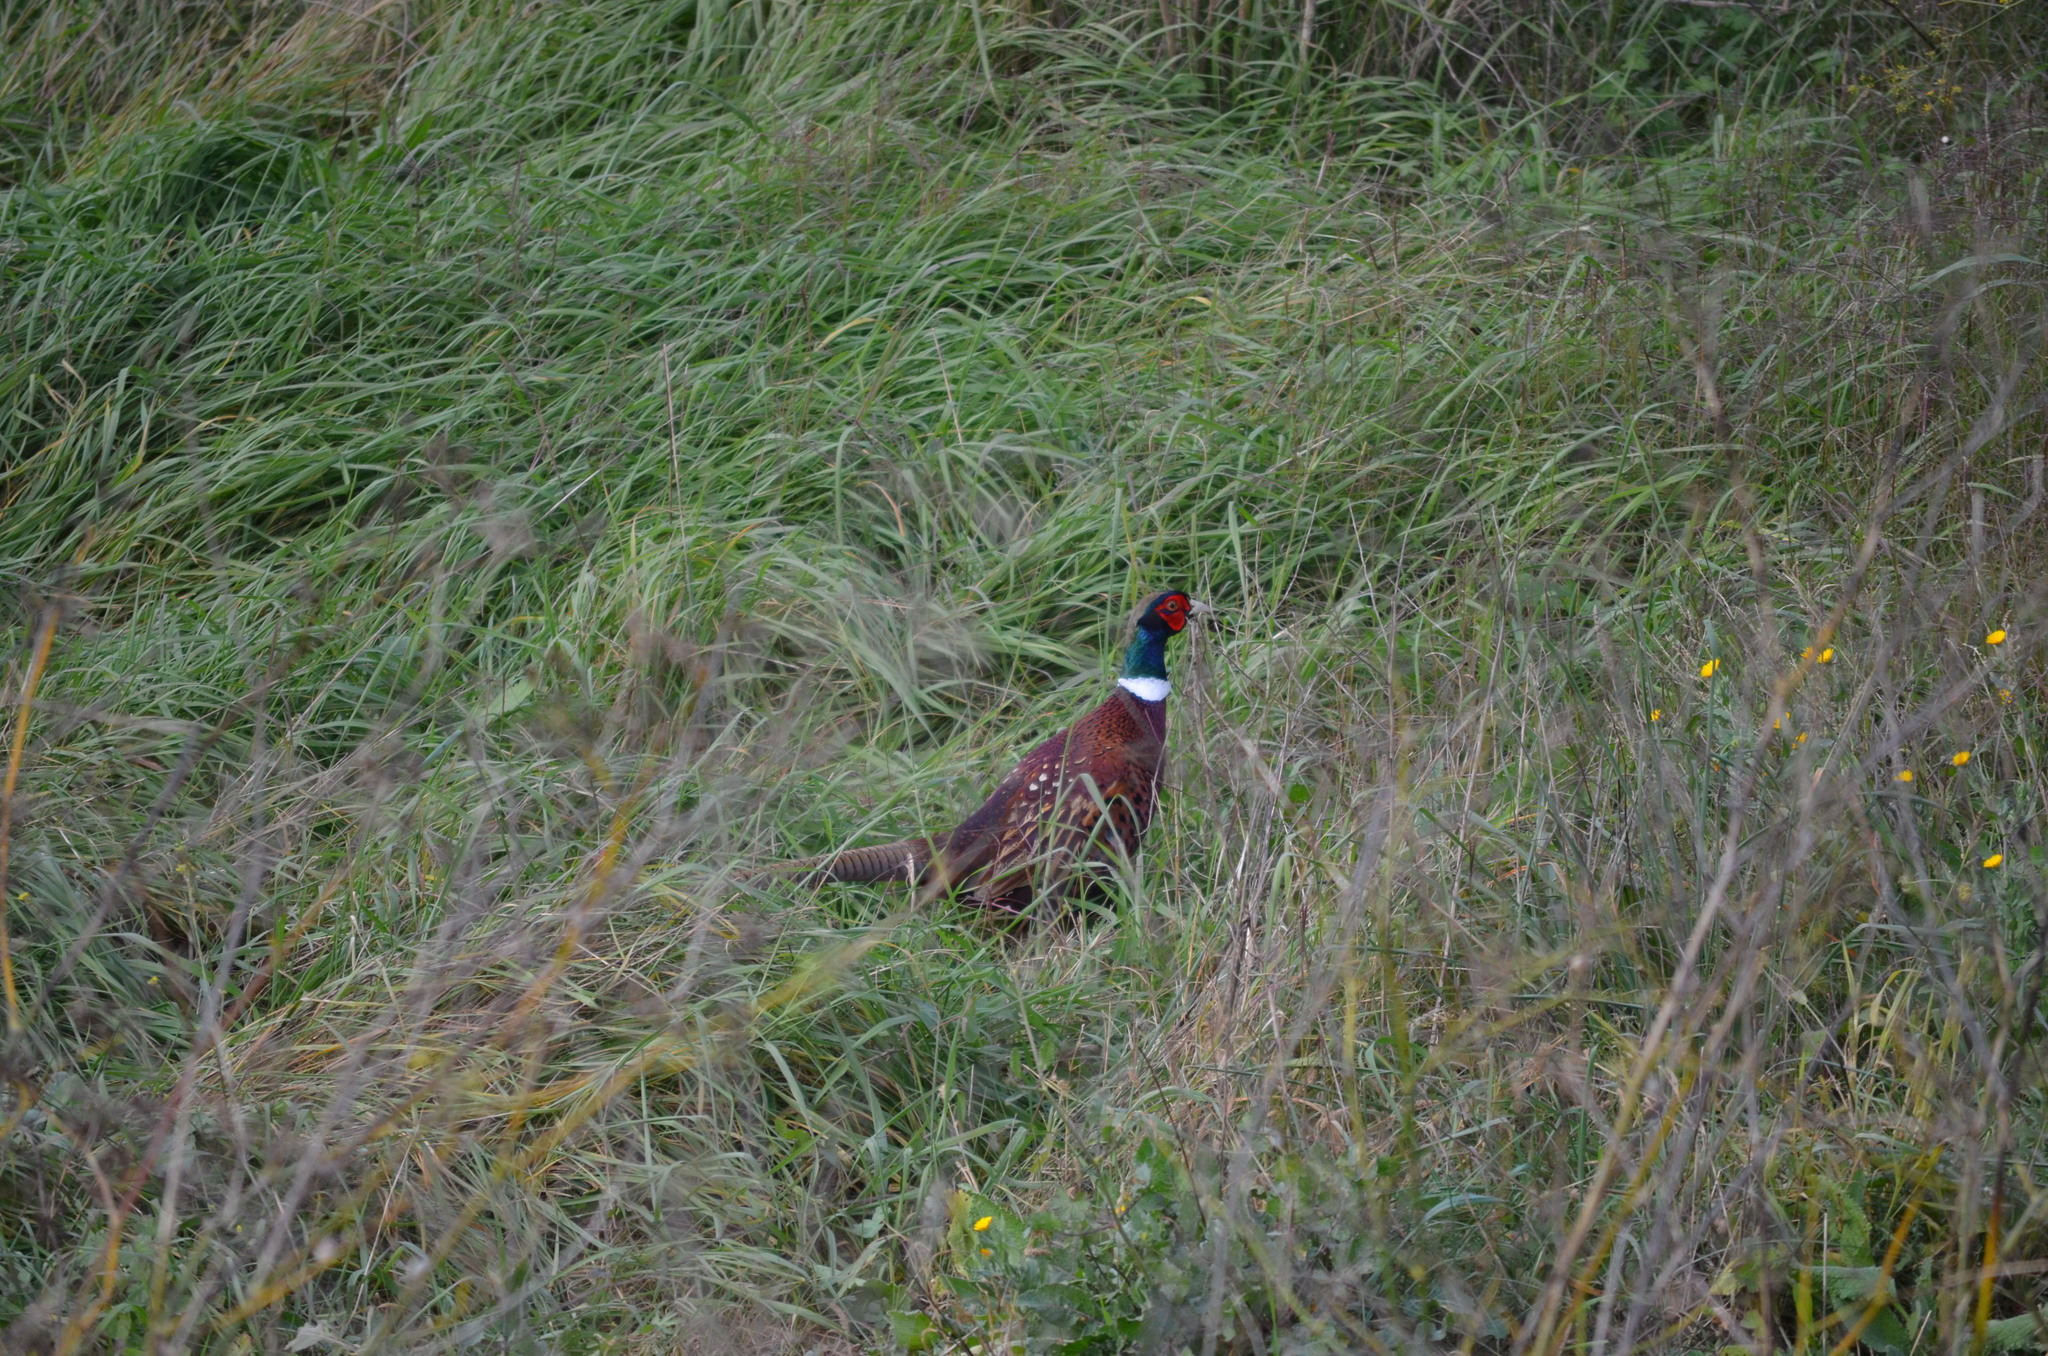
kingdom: Animalia
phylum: Chordata
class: Aves
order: Galliformes
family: Phasianidae
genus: Phasianus
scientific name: Phasianus colchicus
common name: Common pheasant
